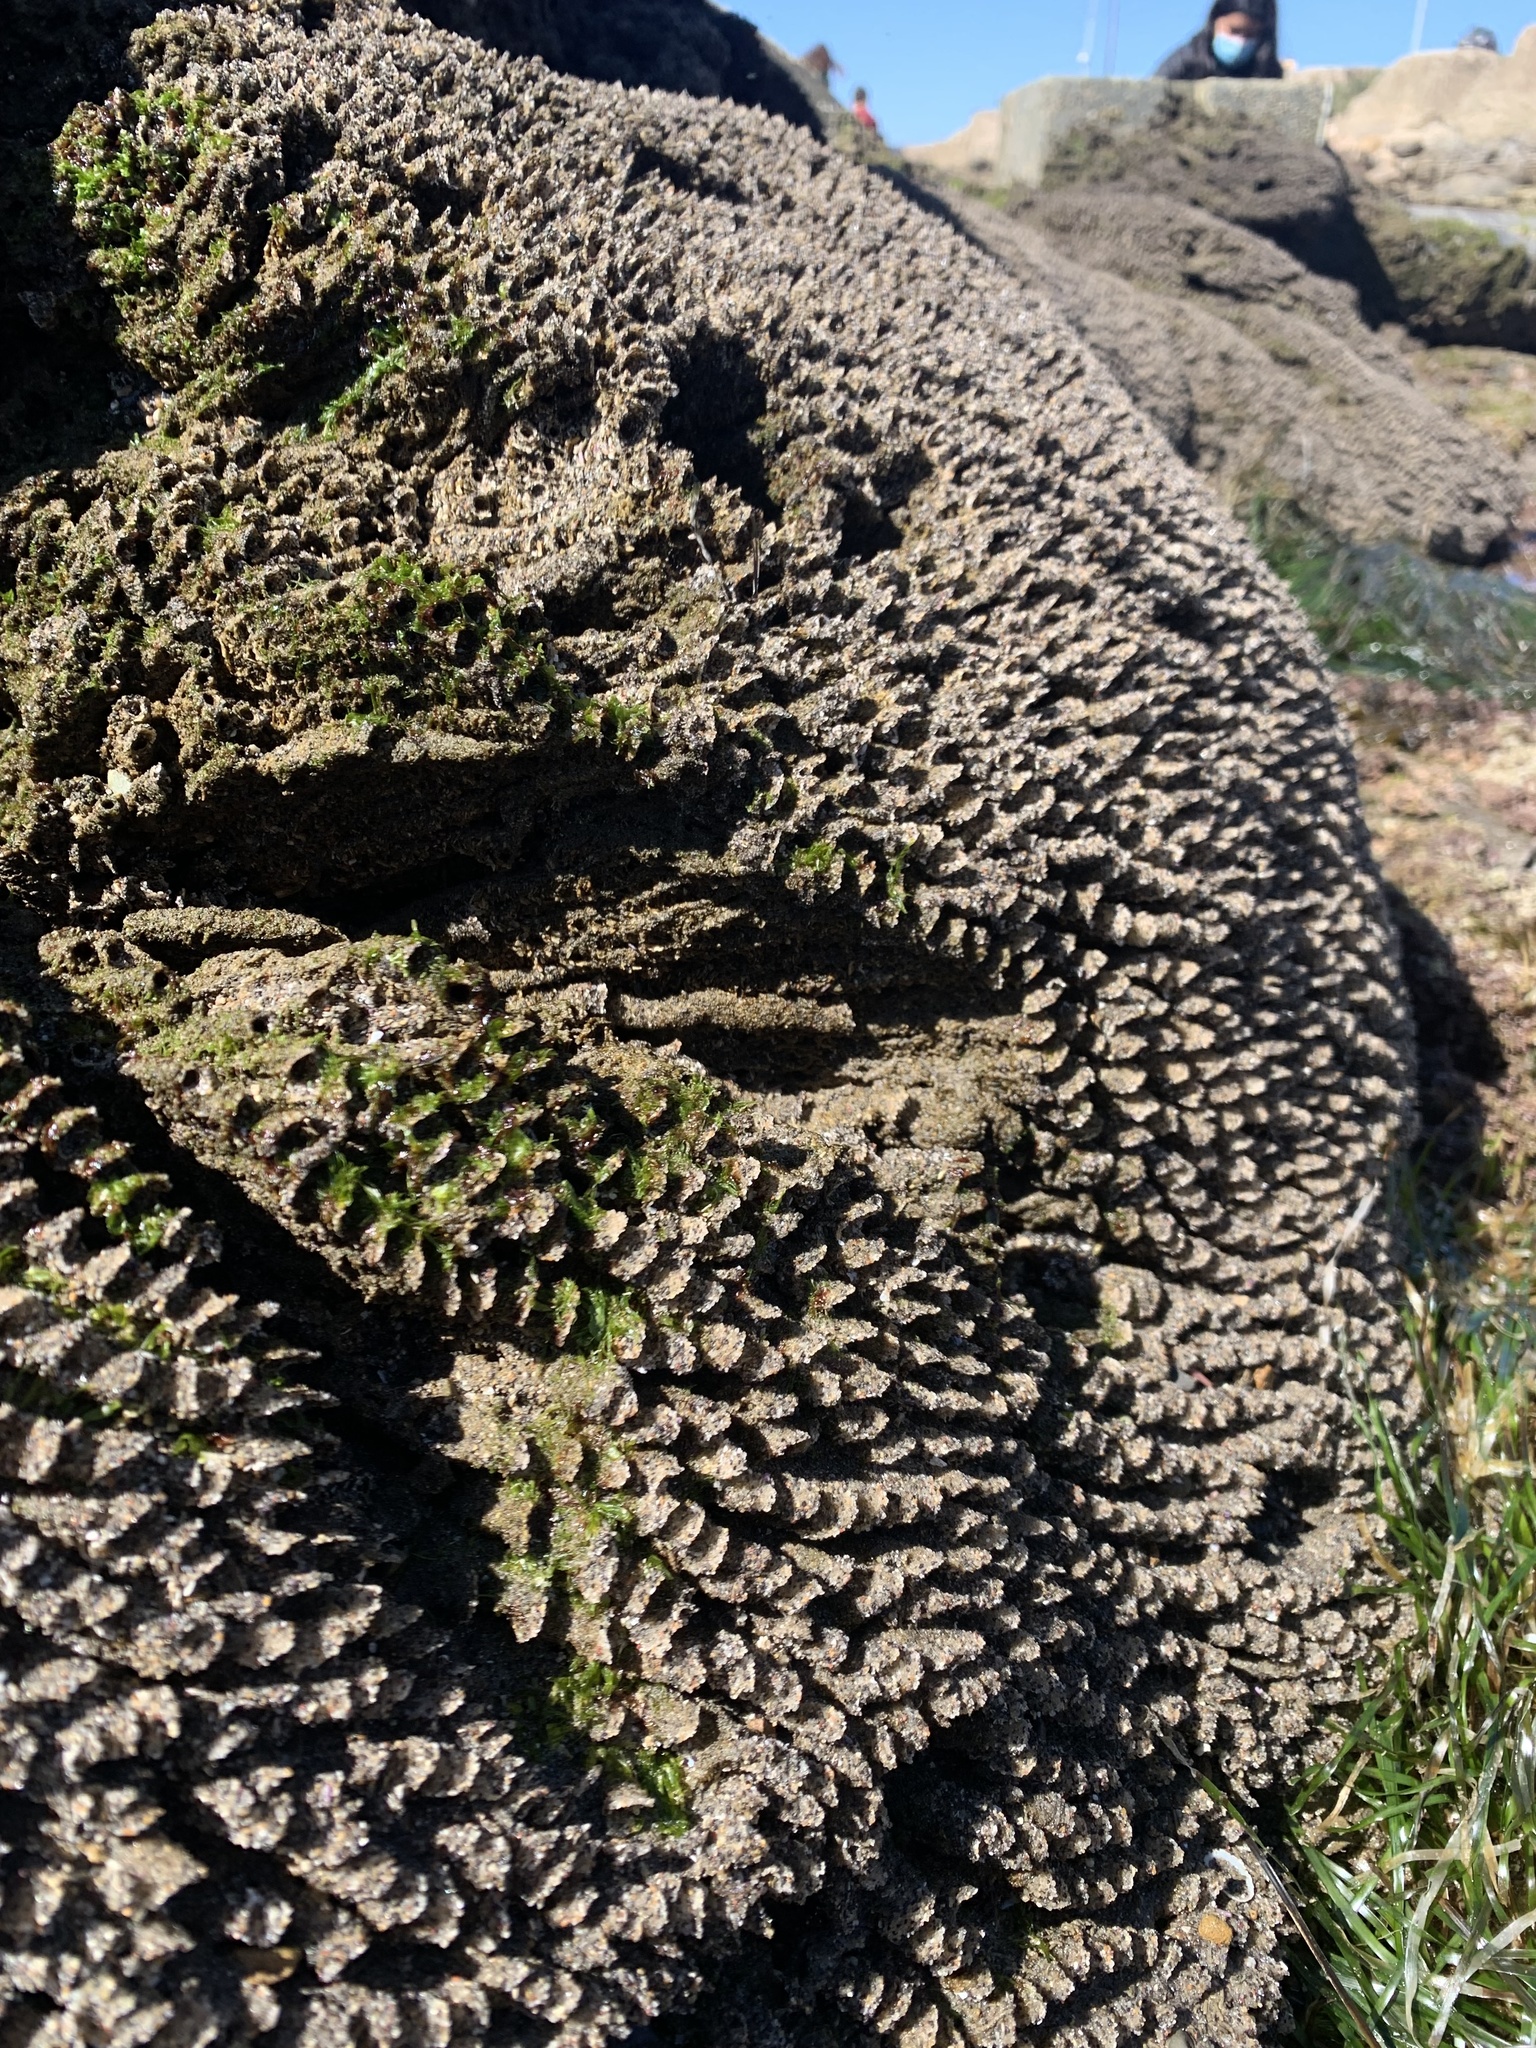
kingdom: Animalia
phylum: Annelida
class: Polychaeta
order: Sabellida
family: Sabellariidae
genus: Phragmatopoma
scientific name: Phragmatopoma californica
